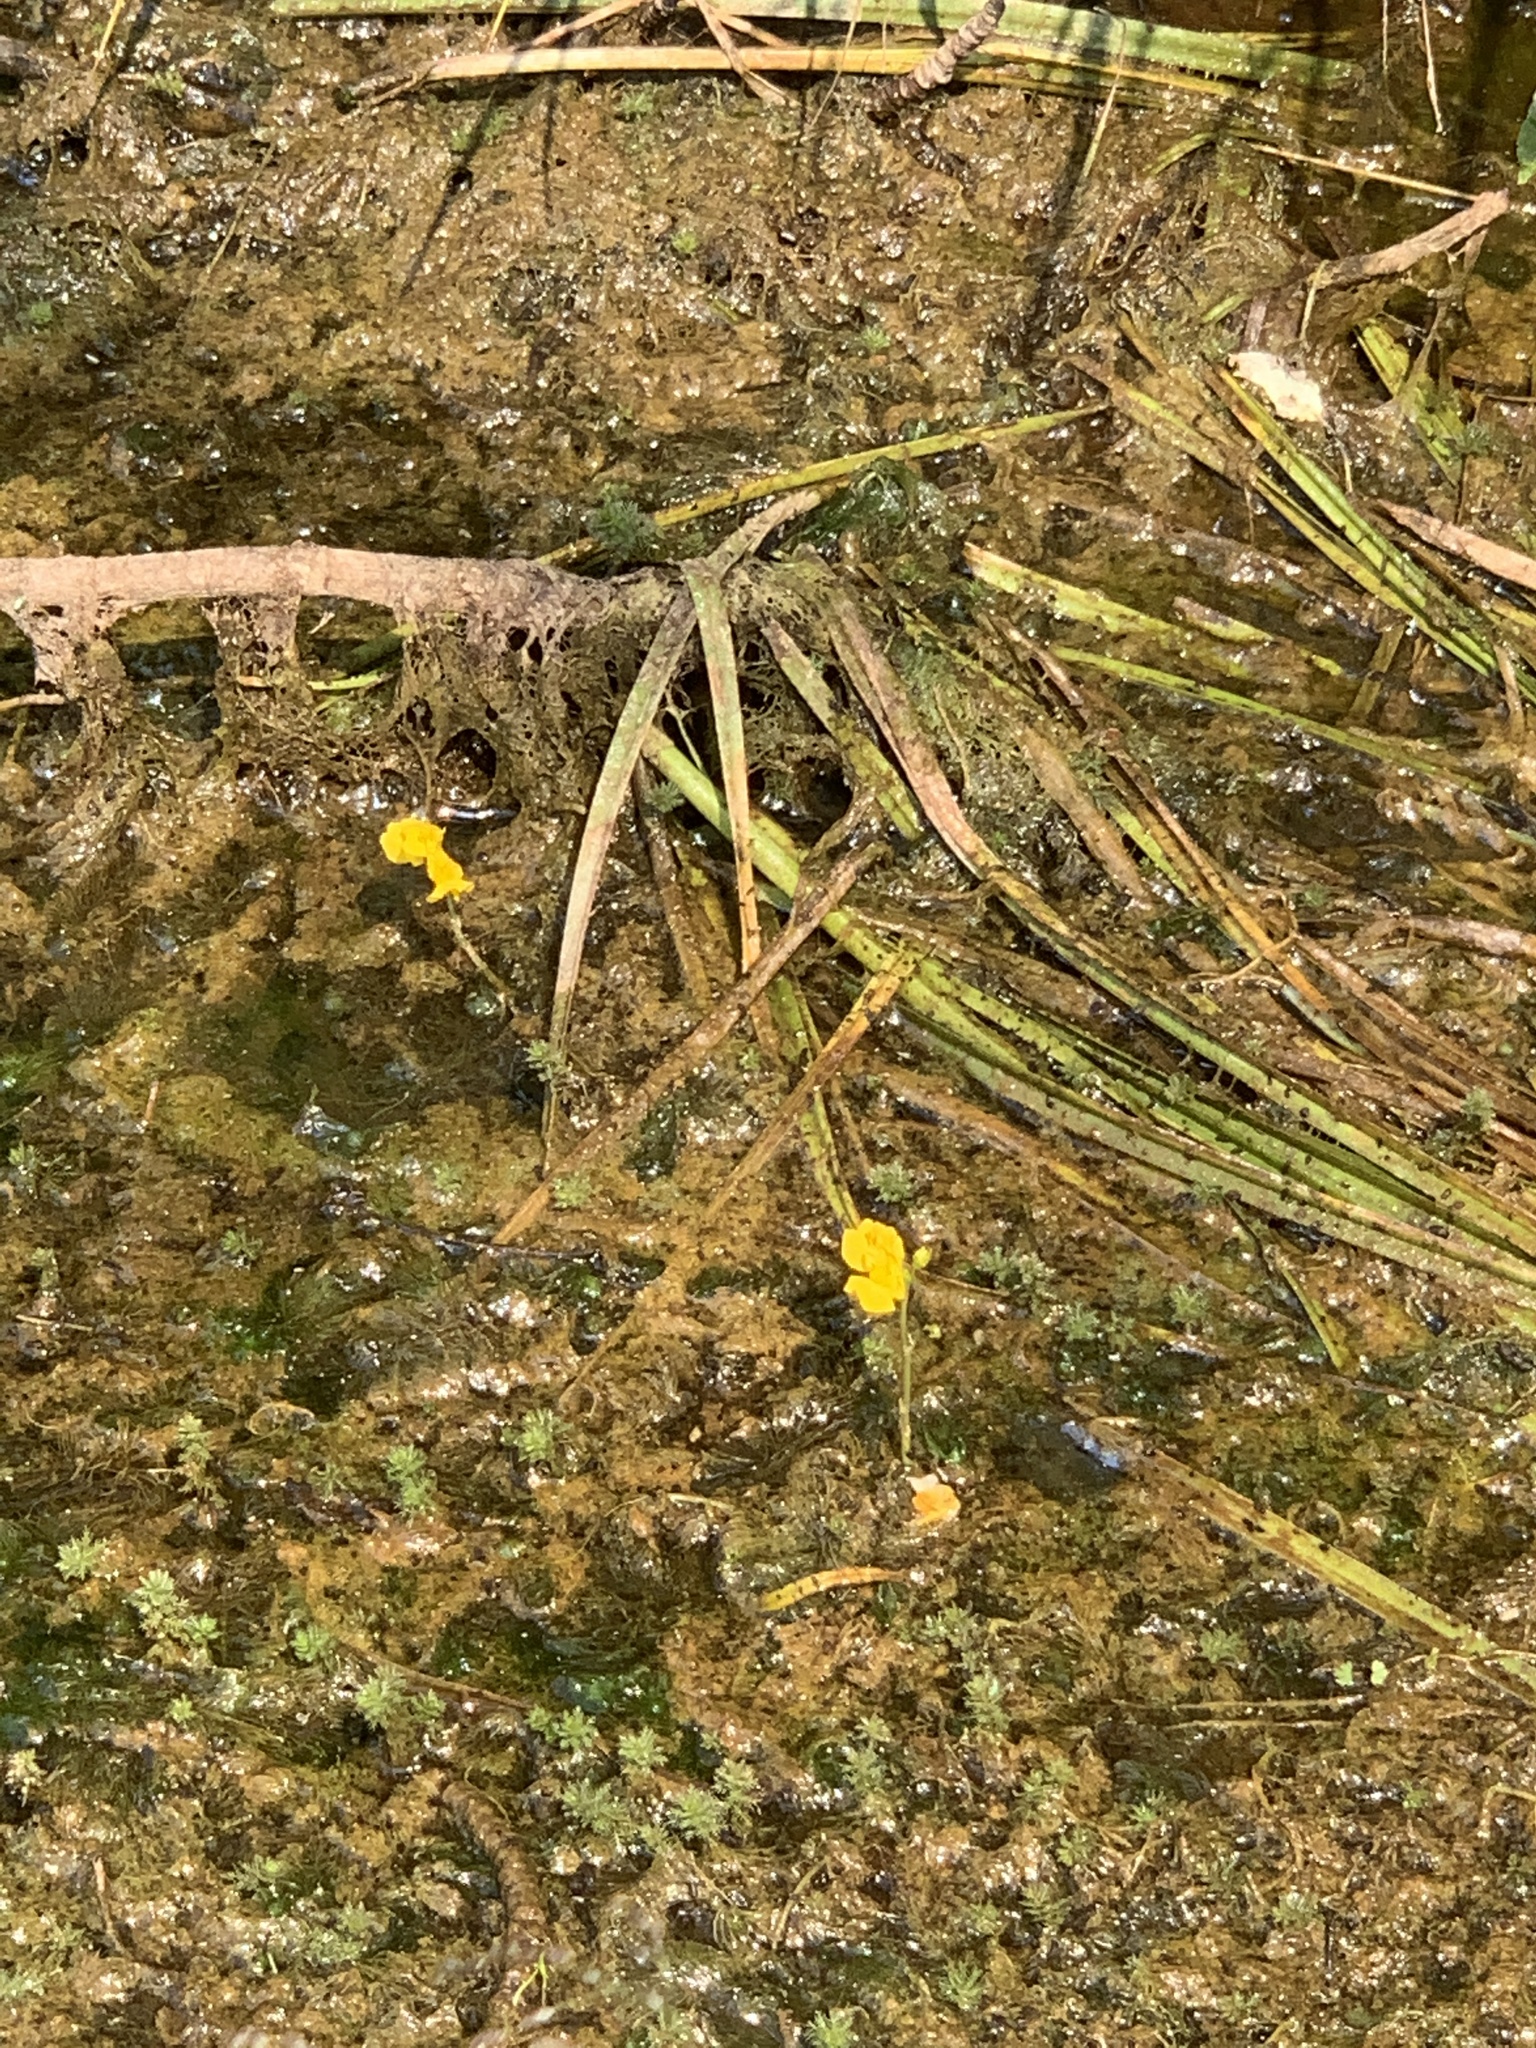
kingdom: Plantae
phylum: Tracheophyta
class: Magnoliopsida
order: Lamiales
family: Lentibulariaceae
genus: Utricularia
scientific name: Utricularia macrorhiza
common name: Common bladderwort
